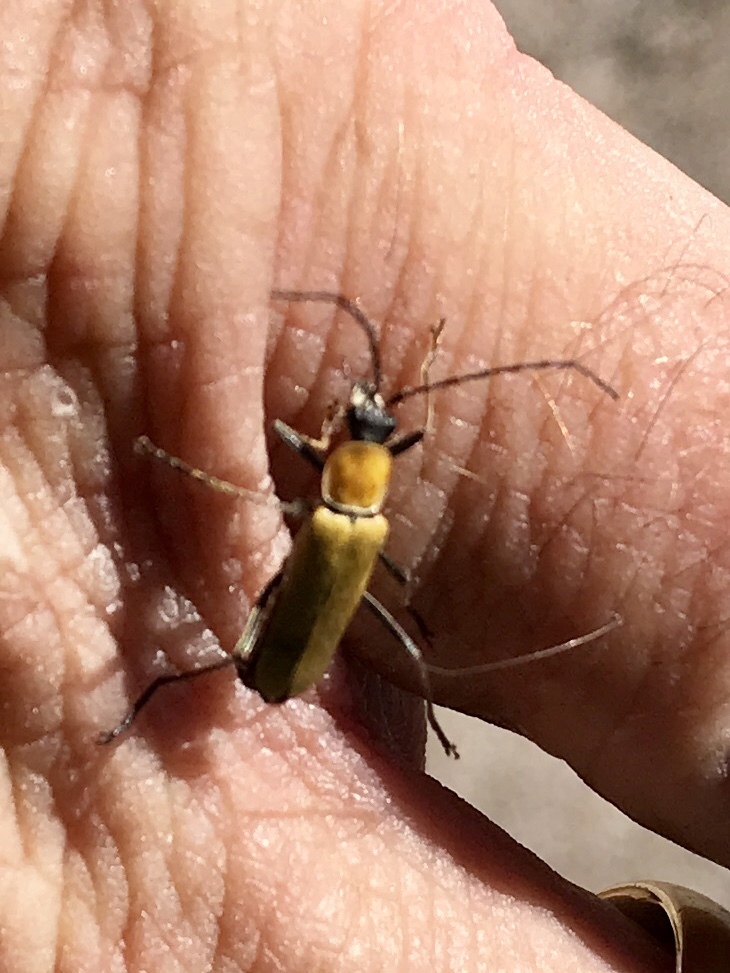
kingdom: Animalia
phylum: Arthropoda
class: Insecta
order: Coleoptera
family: Cantharidae
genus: Chauliognathus
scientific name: Chauliognathus misellus
